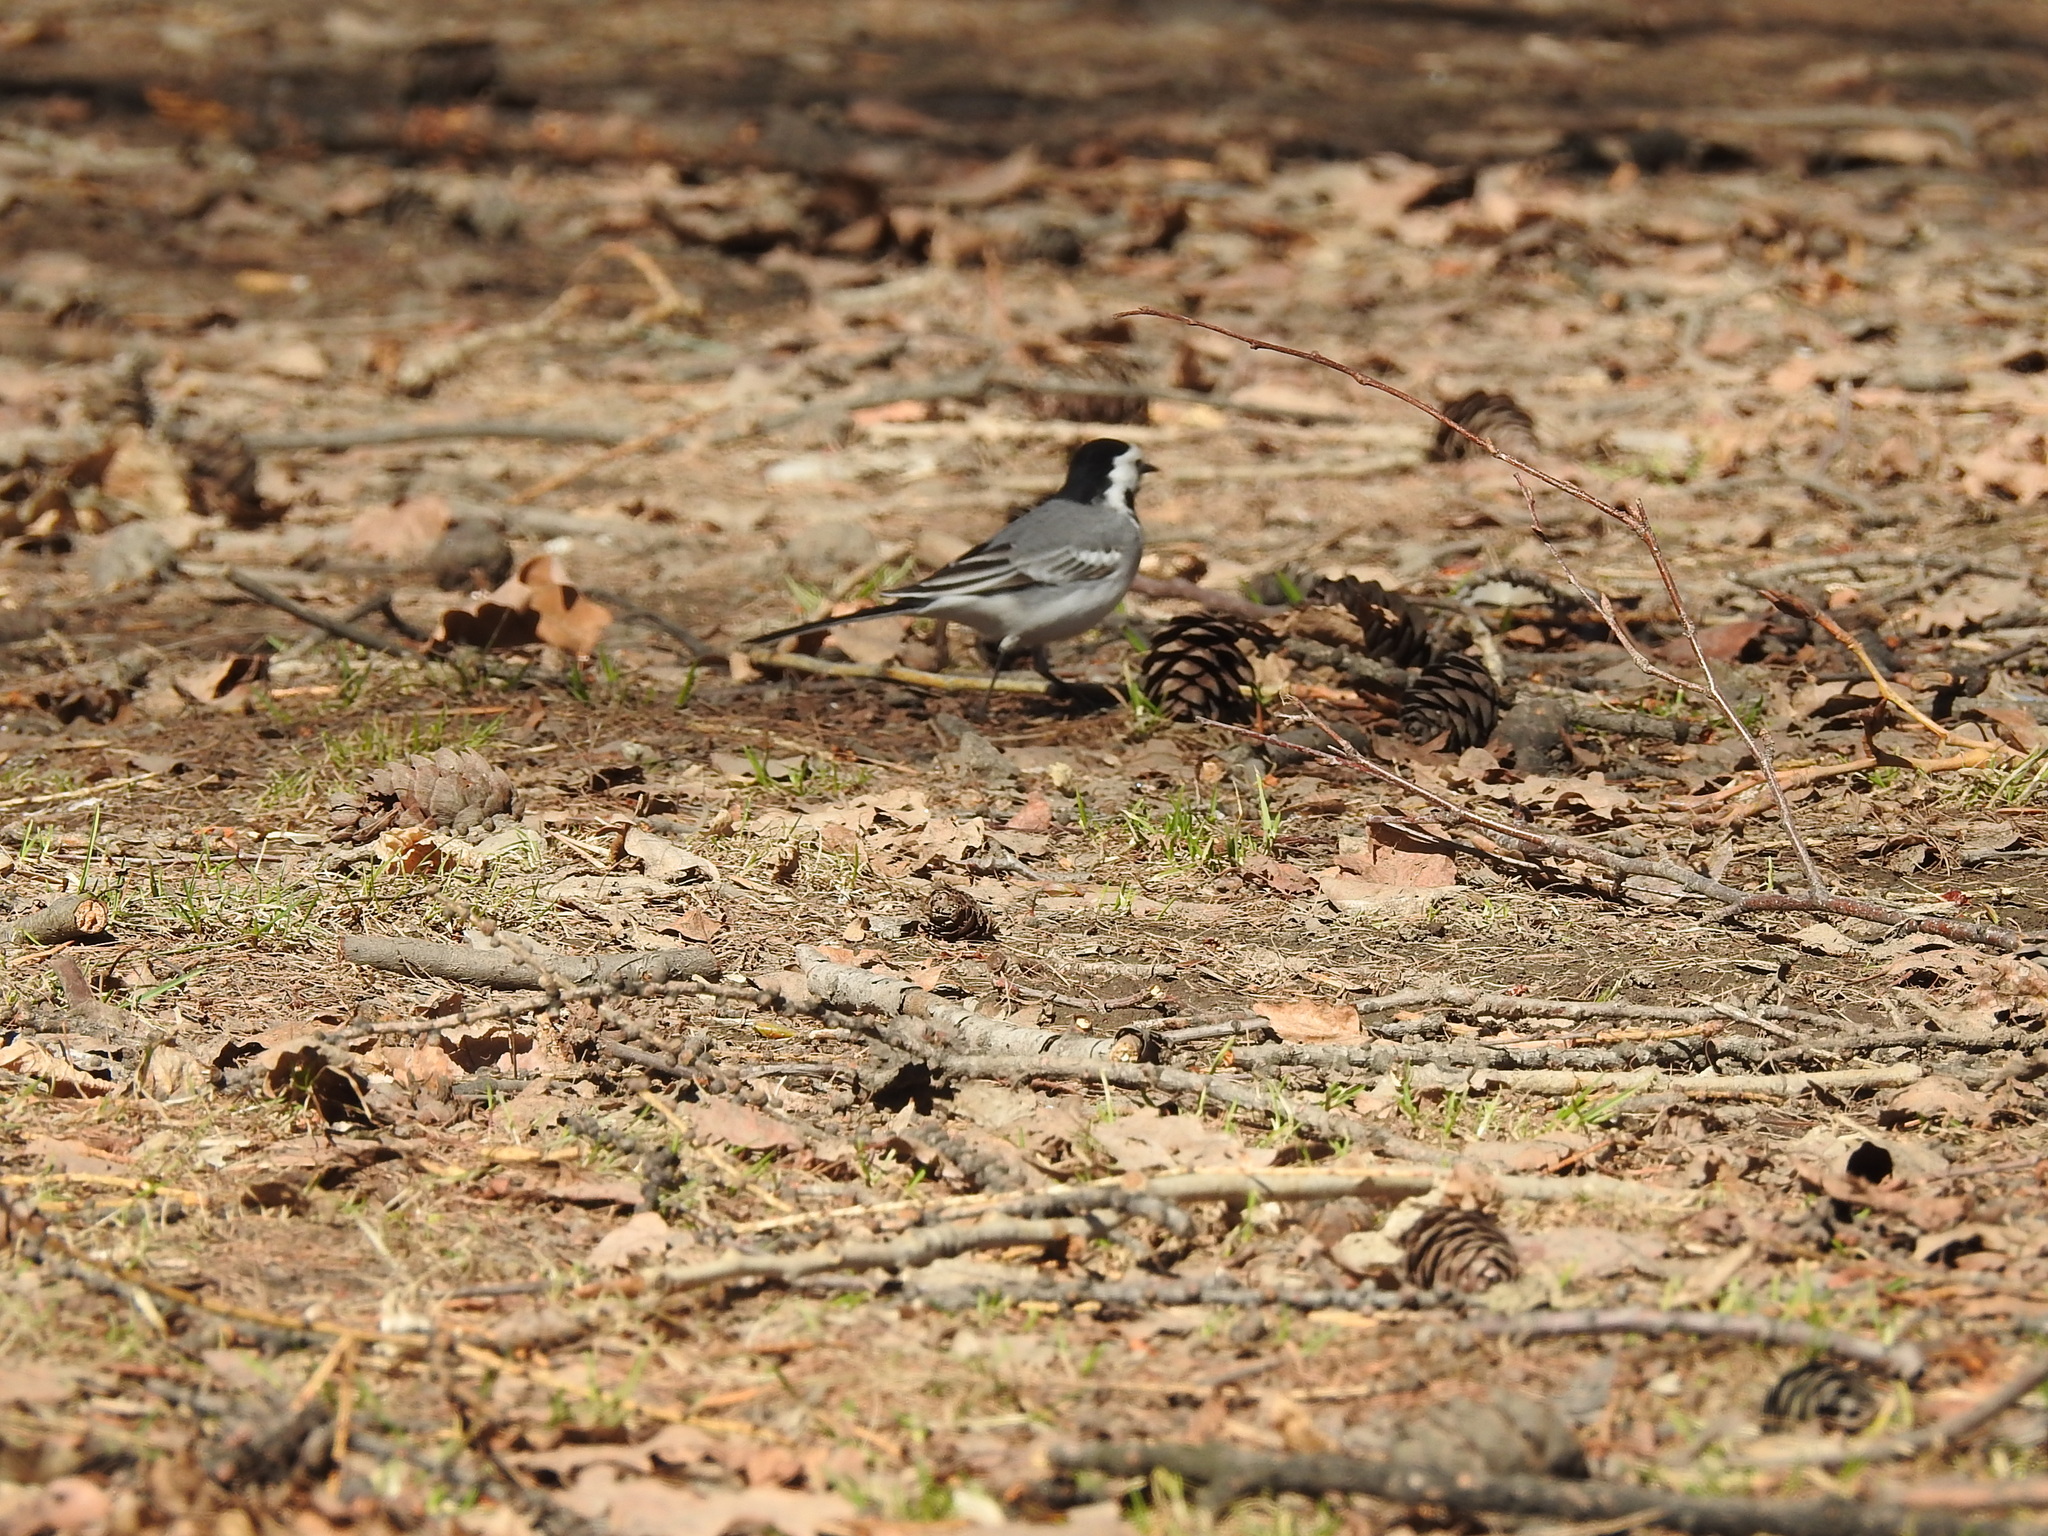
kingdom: Animalia
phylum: Chordata
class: Aves
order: Passeriformes
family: Motacillidae
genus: Motacilla
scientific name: Motacilla alba
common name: White wagtail
